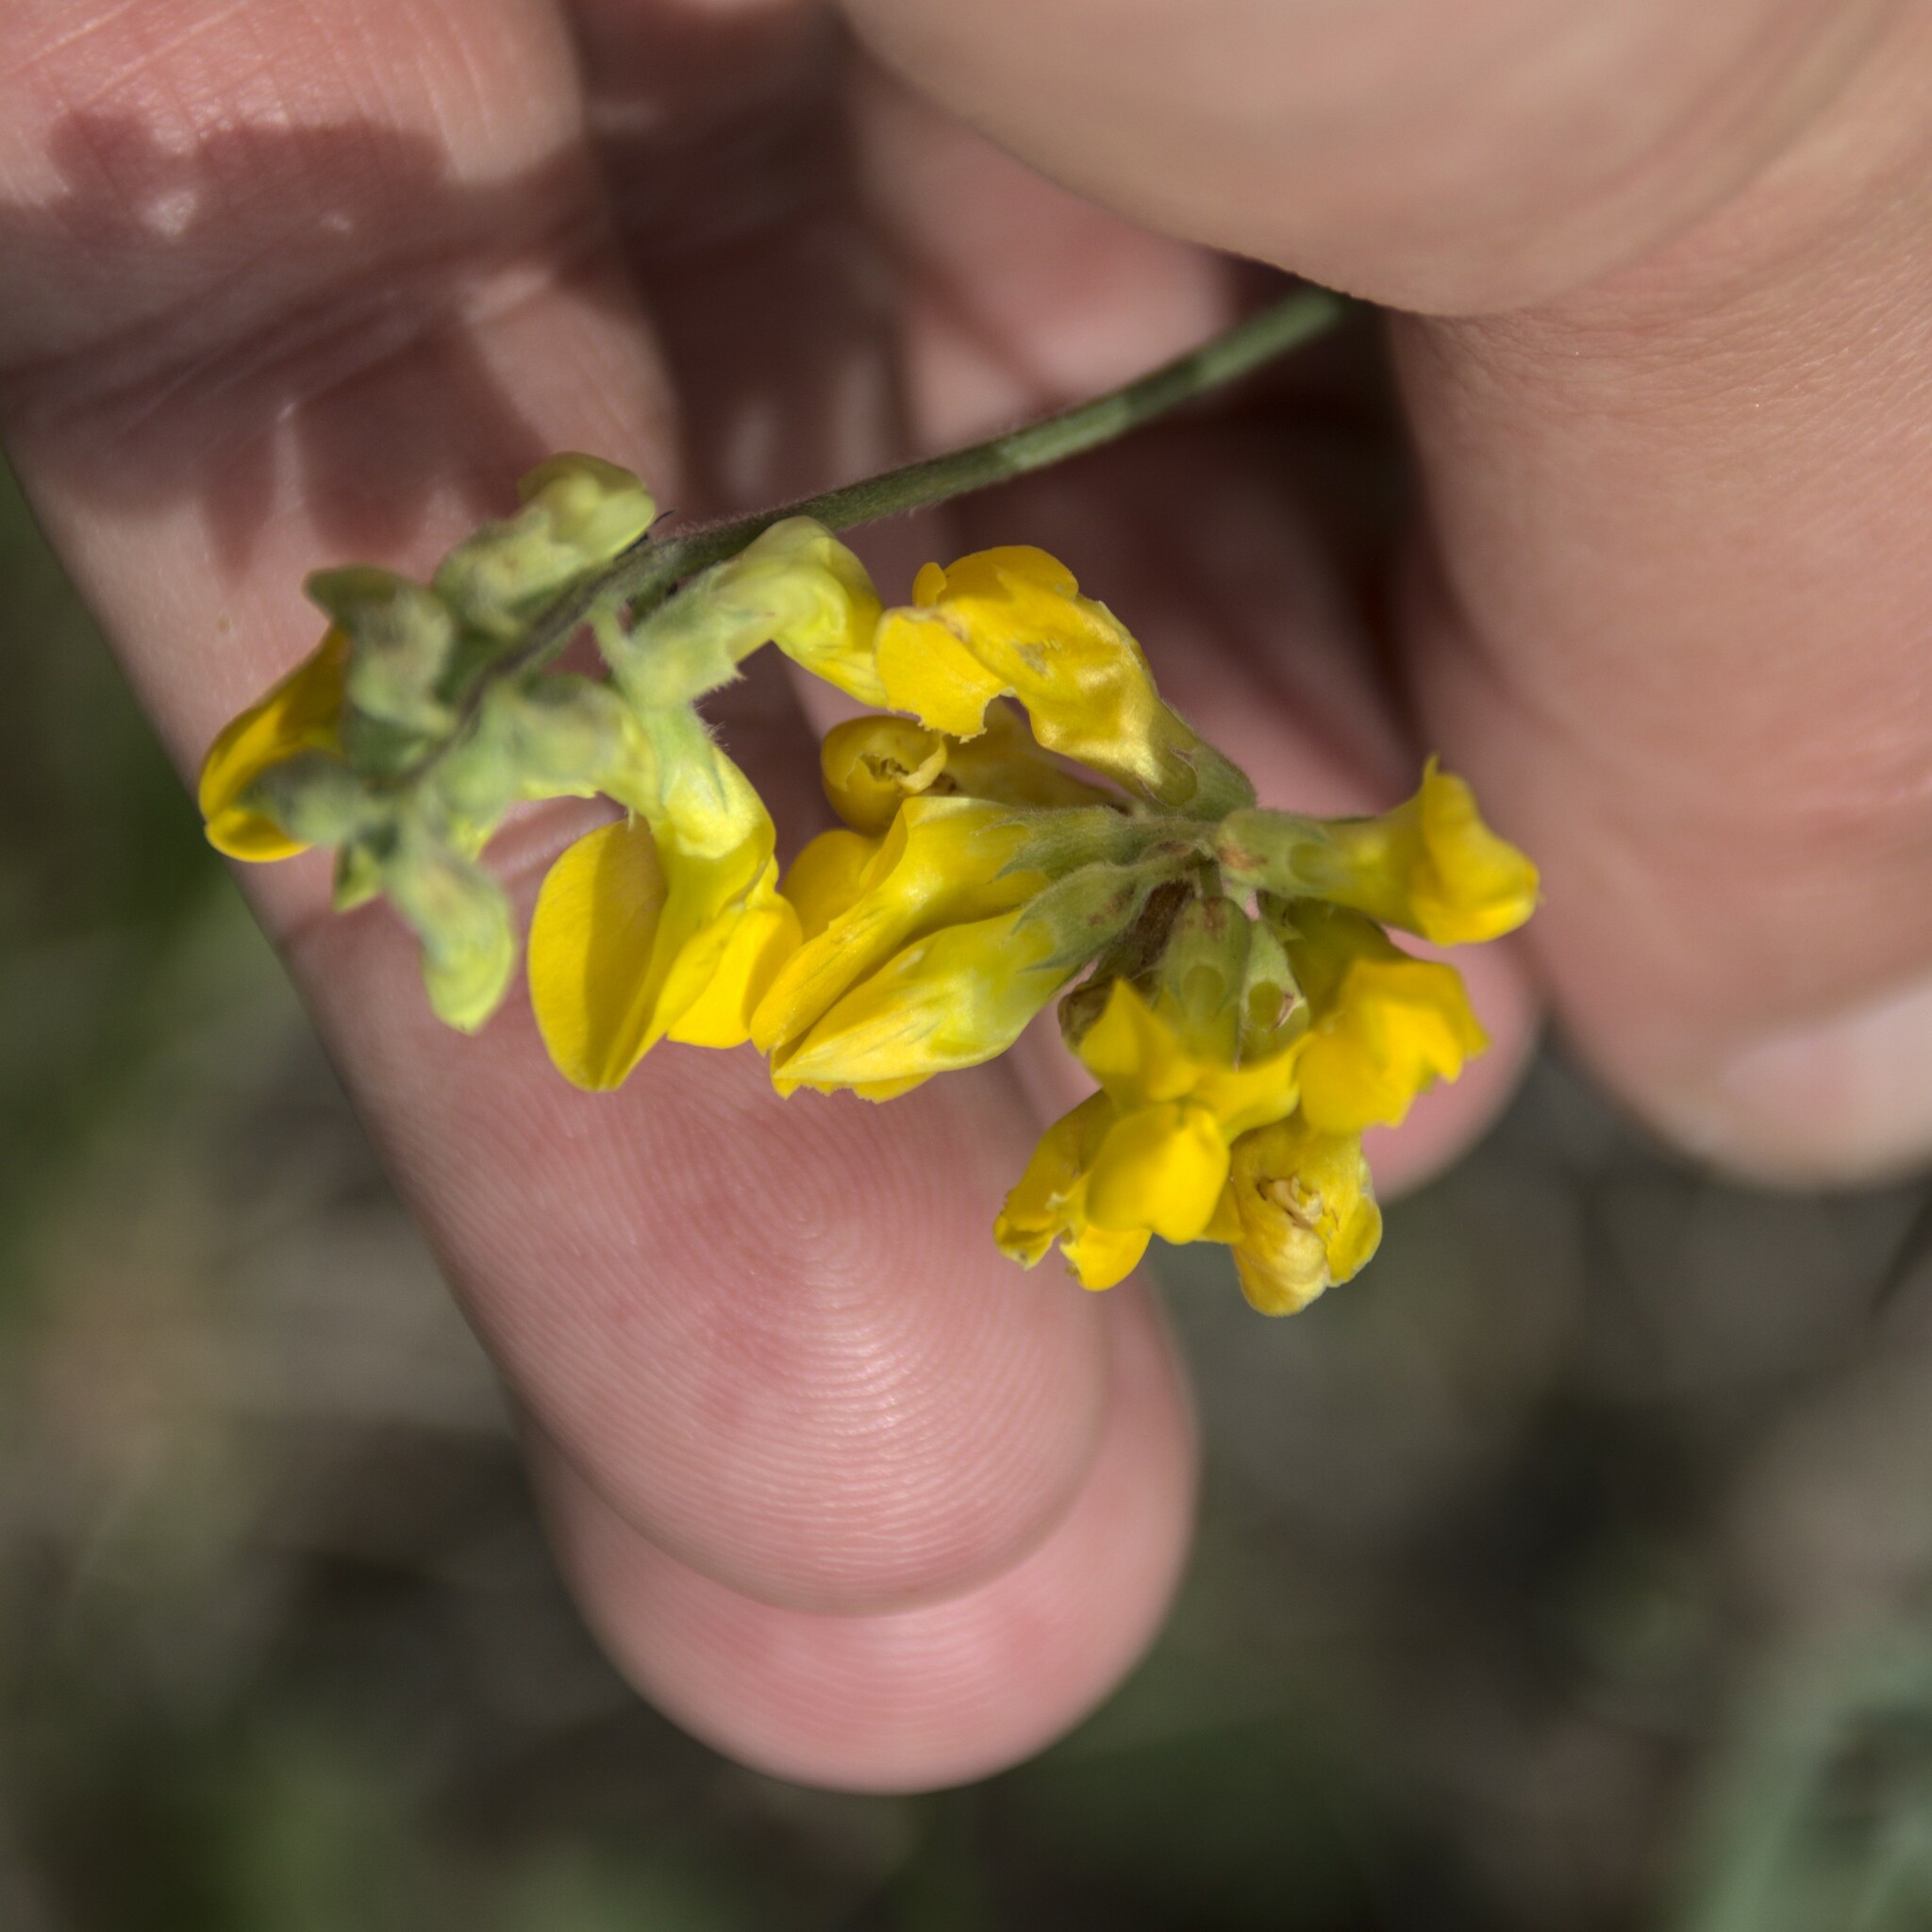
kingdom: Plantae
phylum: Tracheophyta
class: Magnoliopsida
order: Fabales
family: Fabaceae
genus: Lathyrus
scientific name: Lathyrus pratensis
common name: Meadow vetchling
